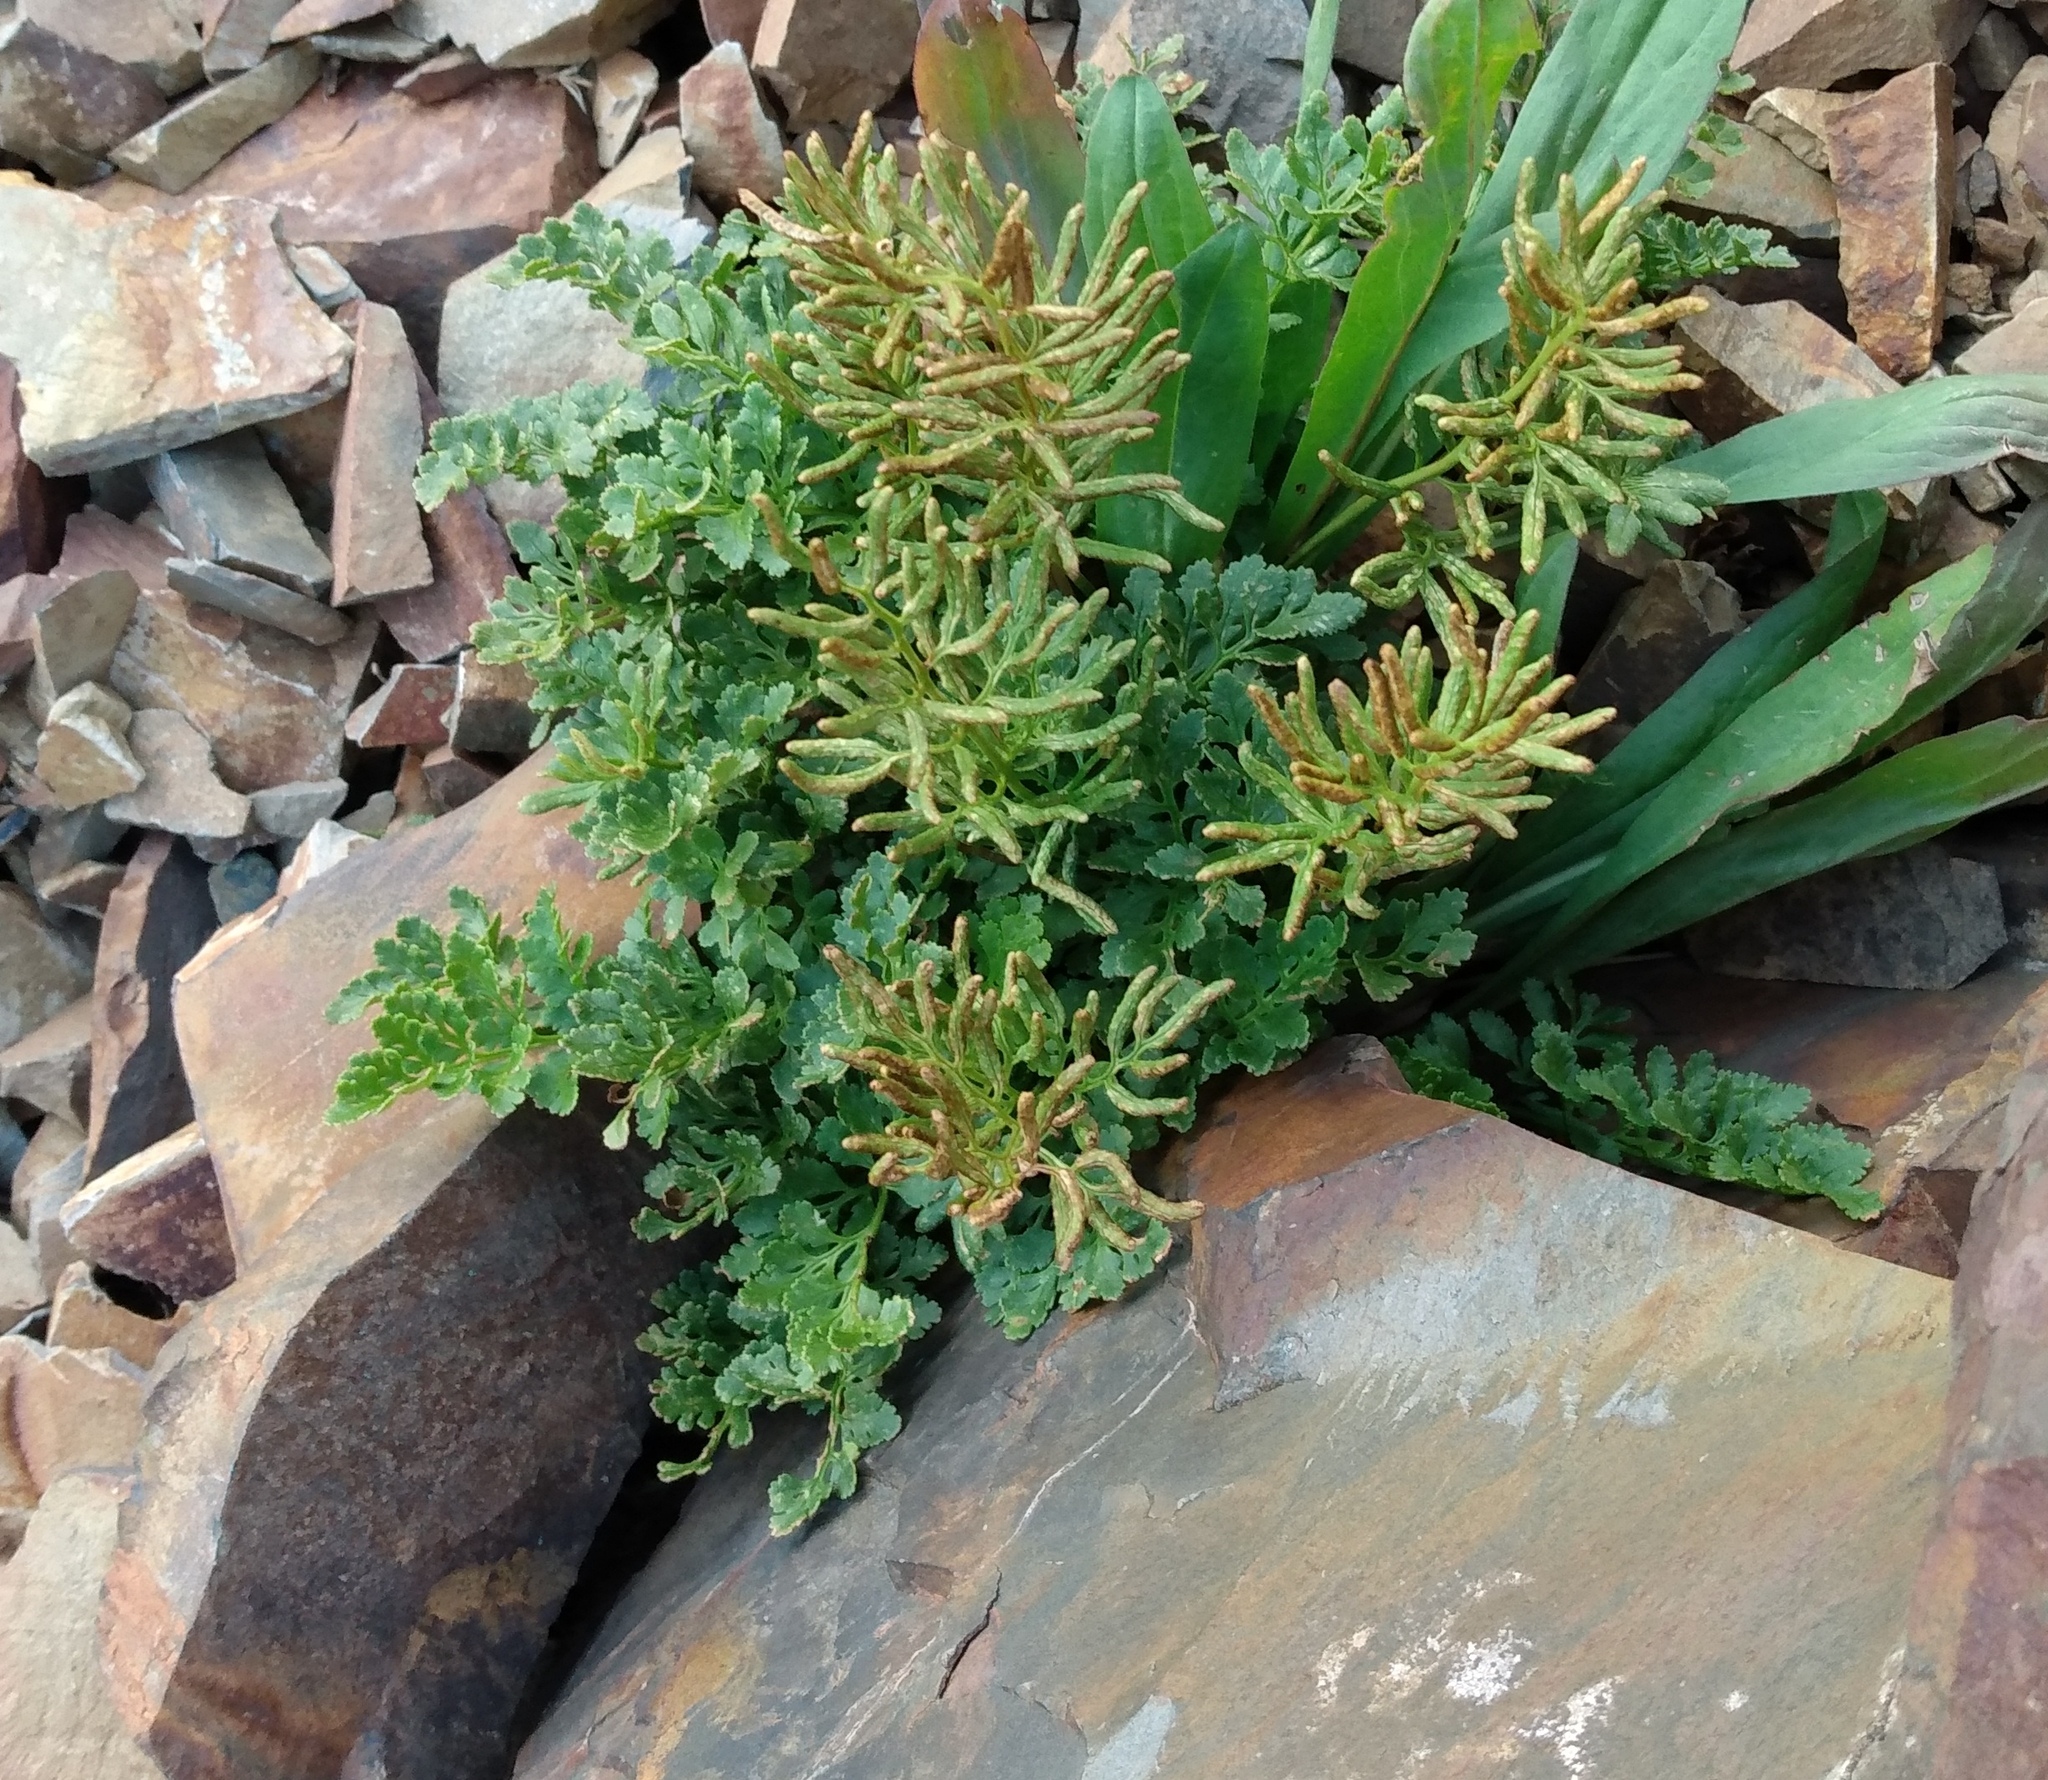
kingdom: Plantae
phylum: Tracheophyta
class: Polypodiopsida
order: Polypodiales
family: Pteridaceae
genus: Cryptogramma
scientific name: Cryptogramma acrostichoides
